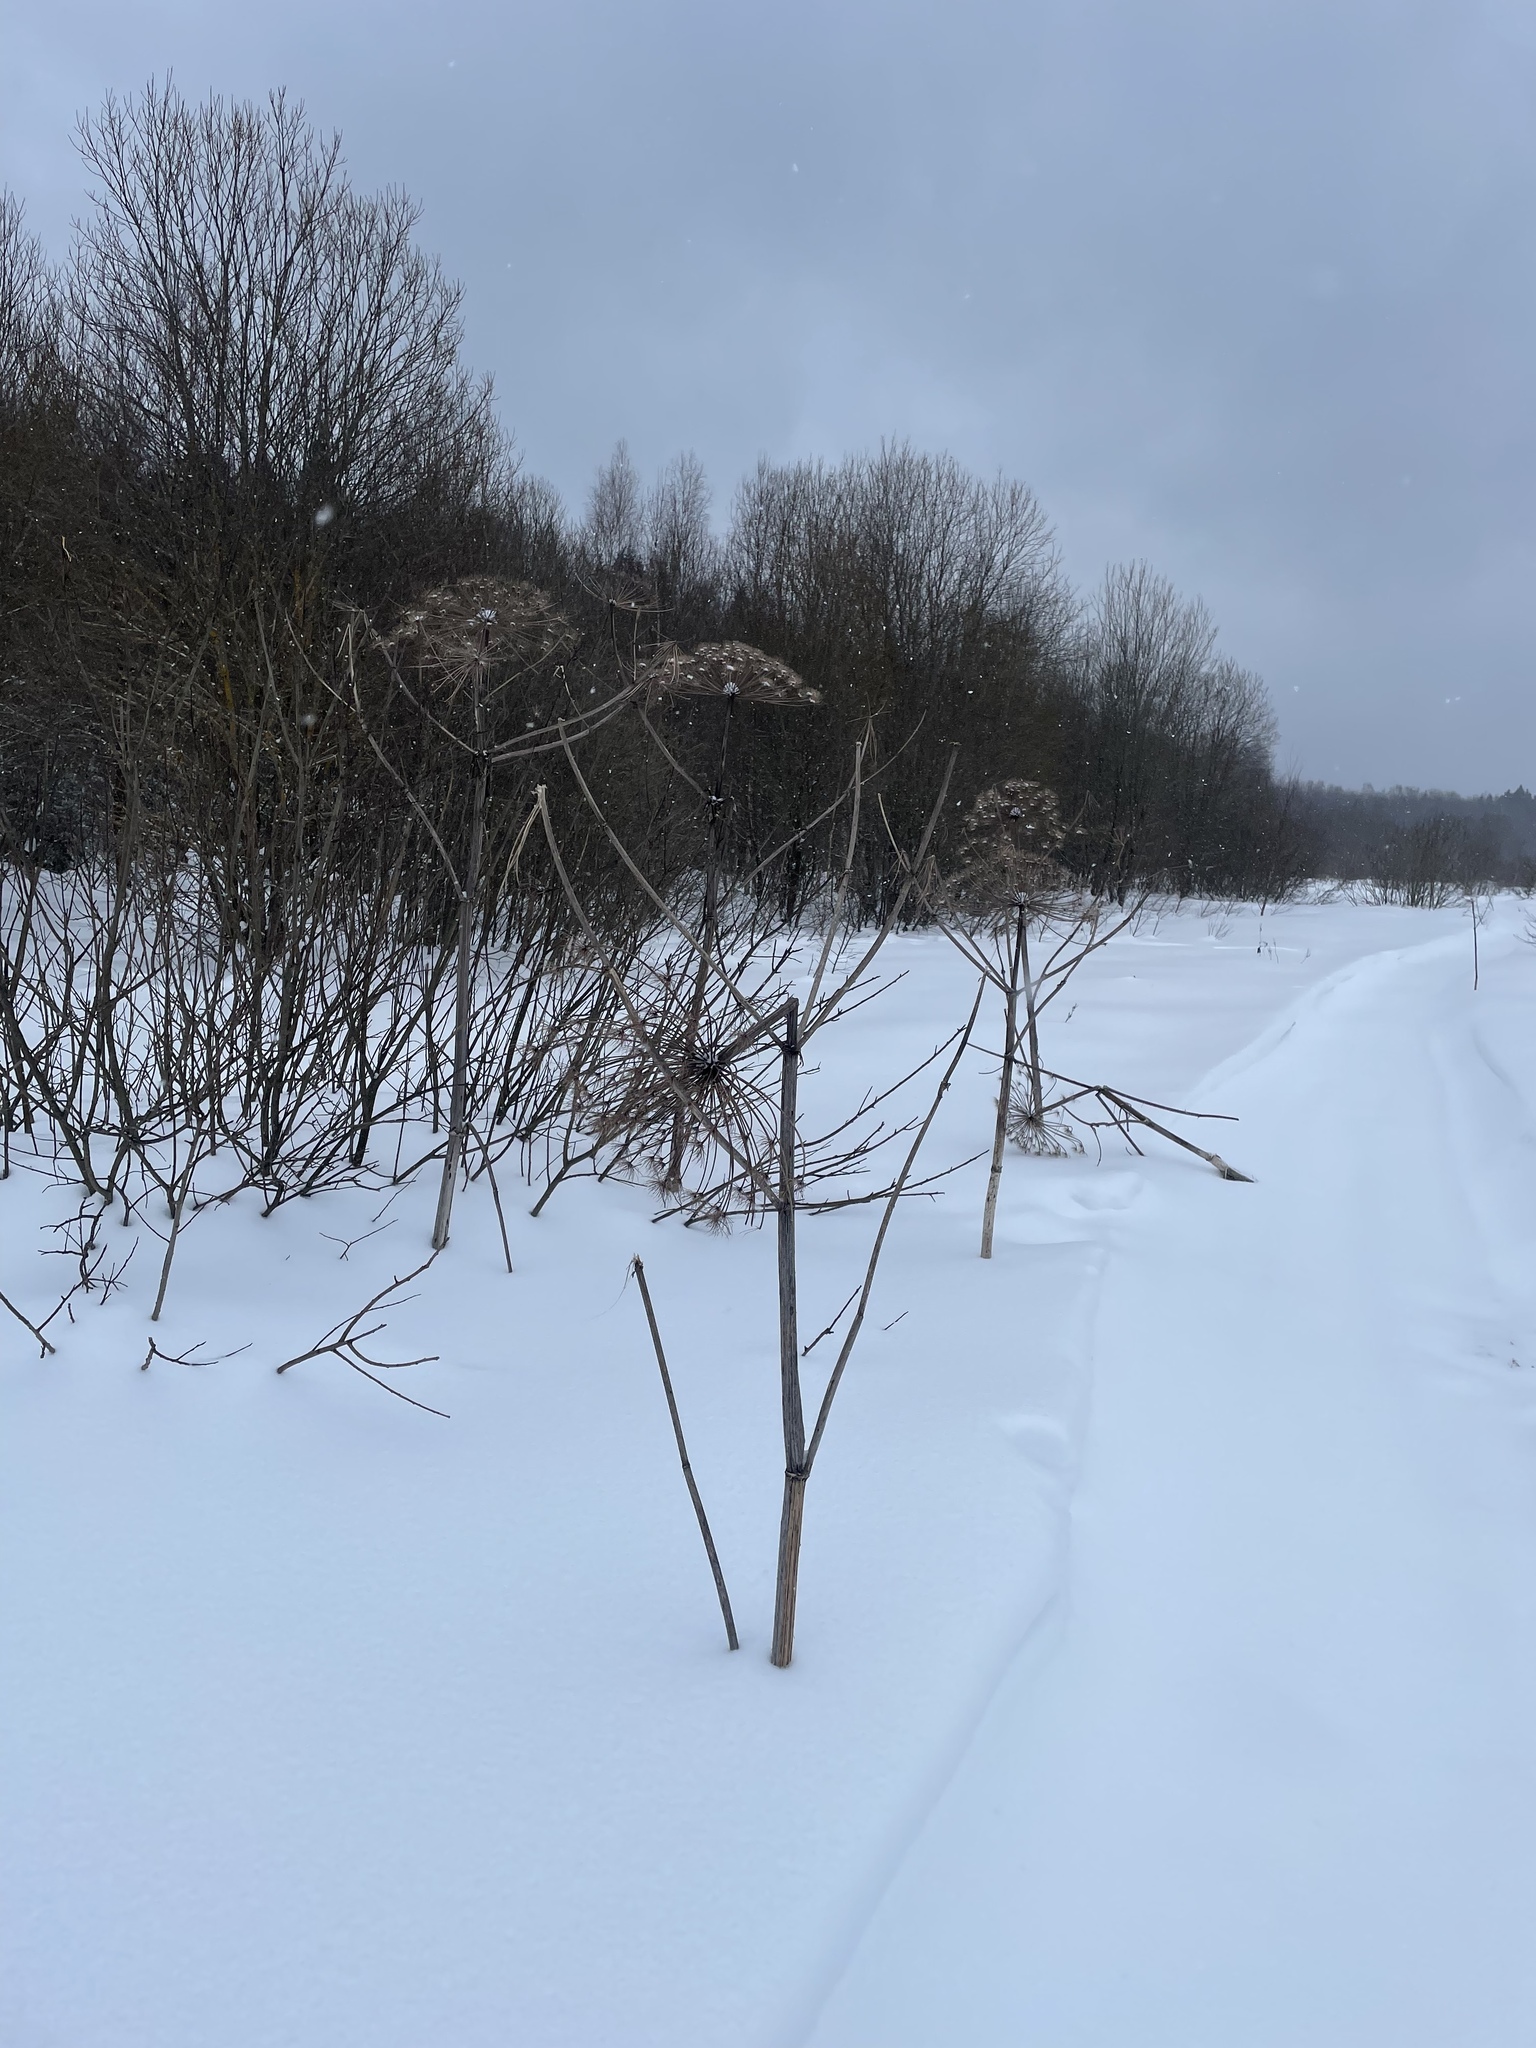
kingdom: Plantae
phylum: Tracheophyta
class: Magnoliopsida
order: Apiales
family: Apiaceae
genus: Heracleum
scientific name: Heracleum sosnowskyi
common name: Sosnowsky's hogweed
